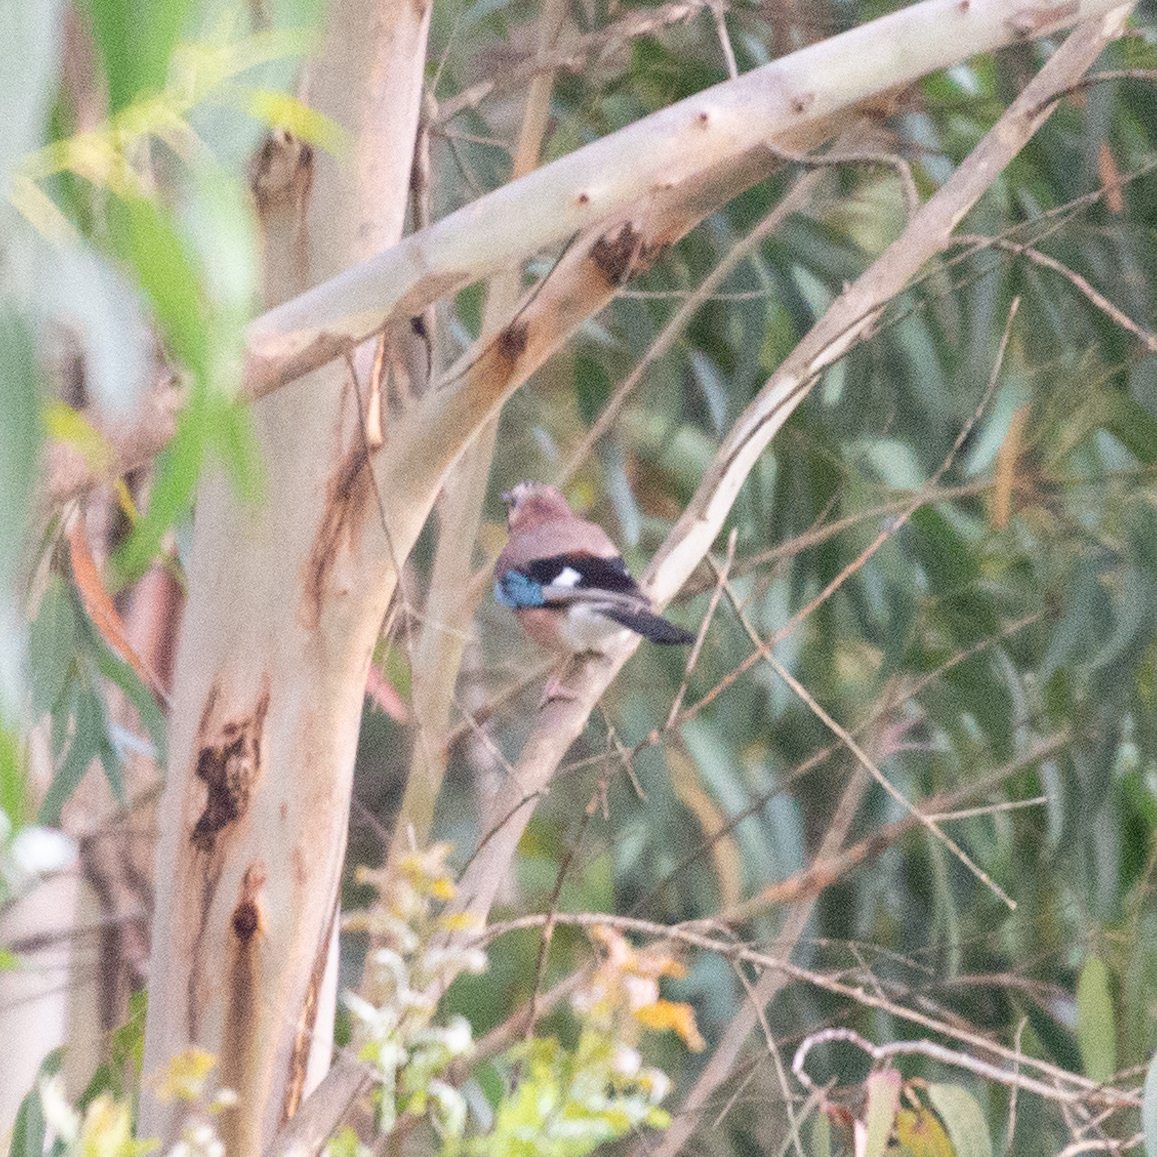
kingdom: Animalia
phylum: Chordata
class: Aves
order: Passeriformes
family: Corvidae
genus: Garrulus
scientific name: Garrulus glandarius
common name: Eurasian jay
